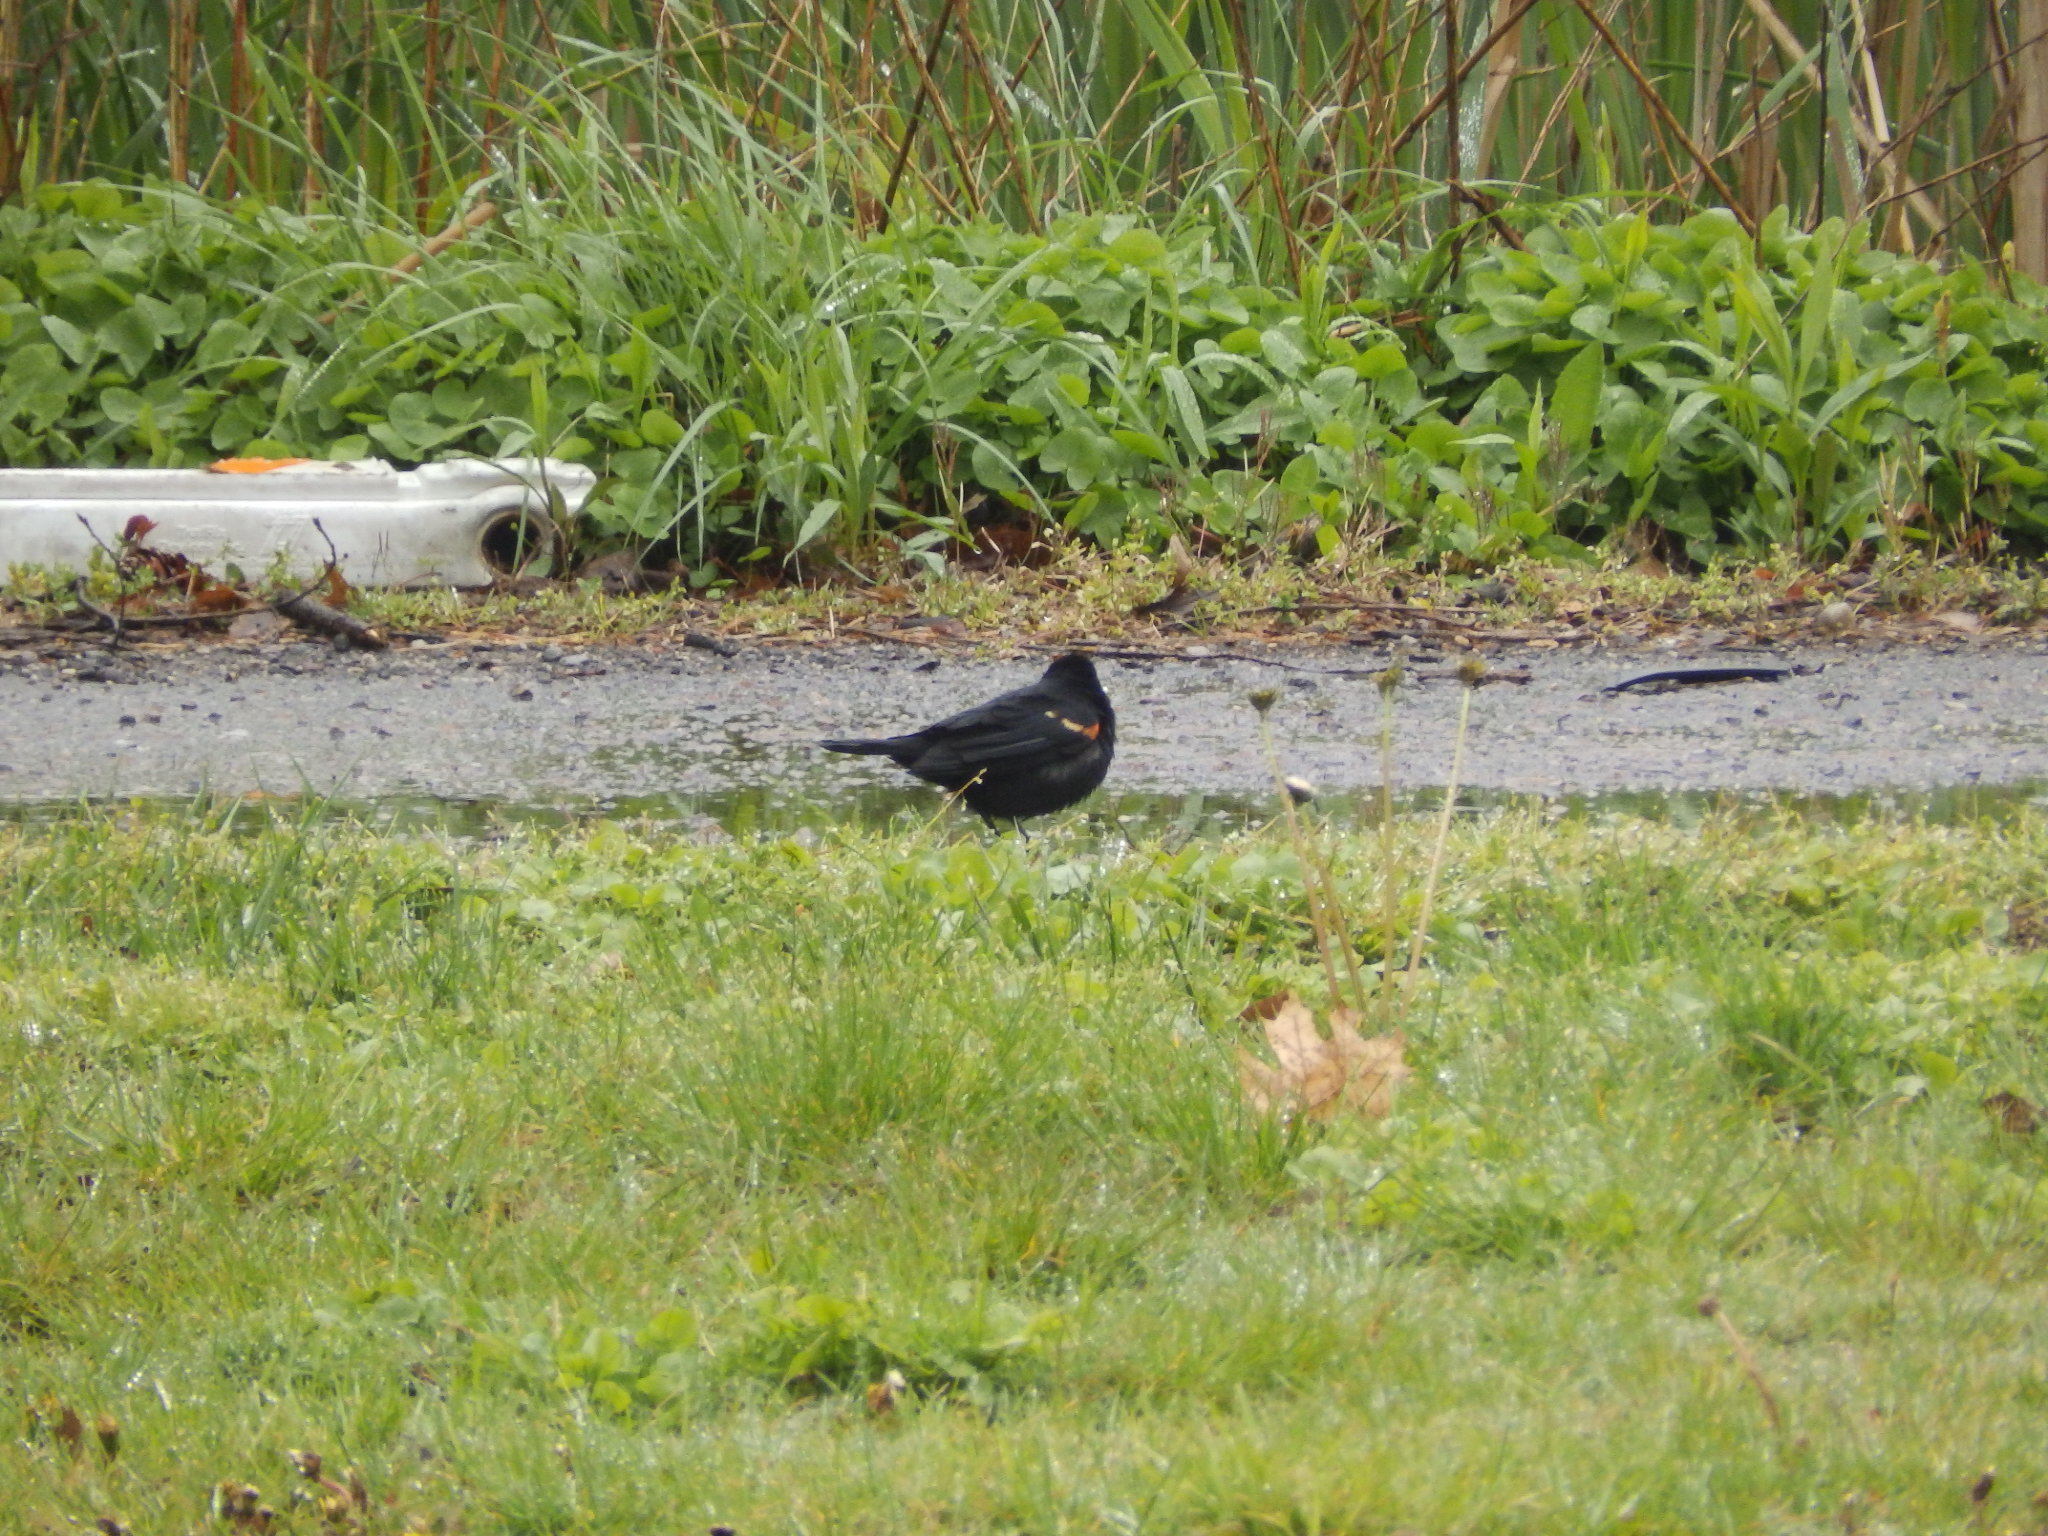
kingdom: Animalia
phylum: Chordata
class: Aves
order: Passeriformes
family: Icteridae
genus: Agelaius
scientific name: Agelaius phoeniceus
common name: Red-winged blackbird
